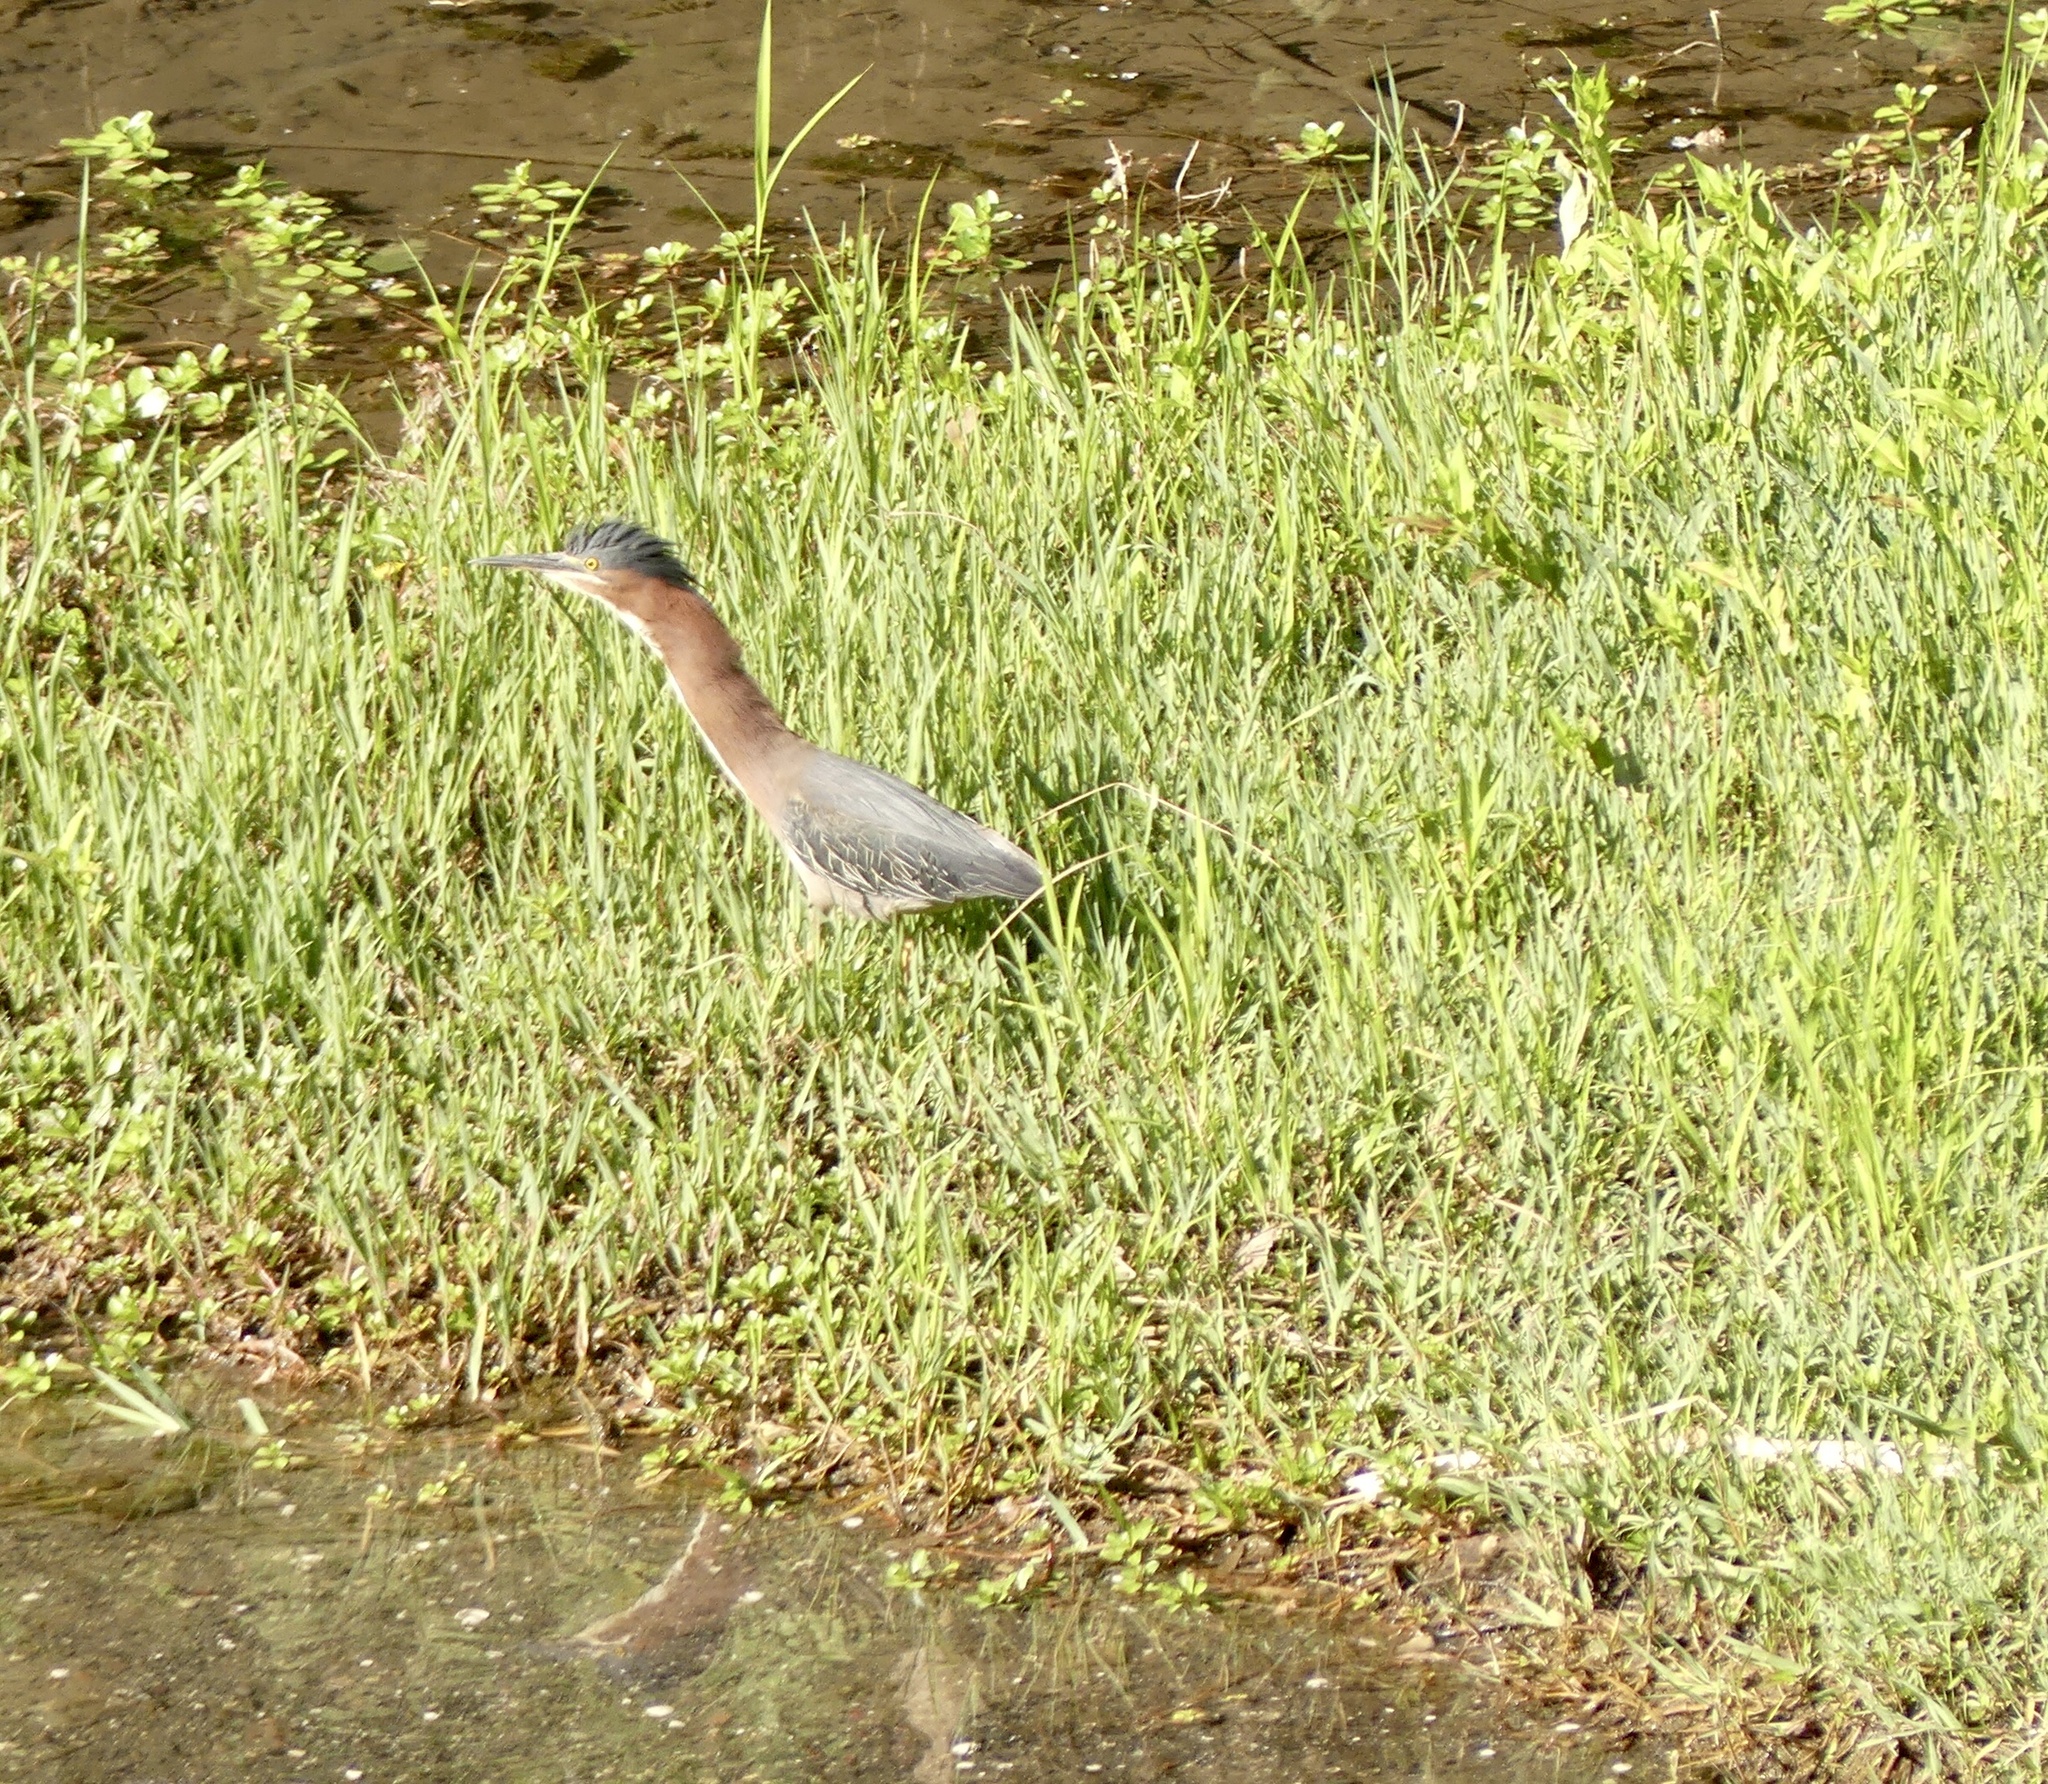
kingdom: Animalia
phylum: Chordata
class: Aves
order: Pelecaniformes
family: Ardeidae
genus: Butorides
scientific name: Butorides virescens
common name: Green heron
